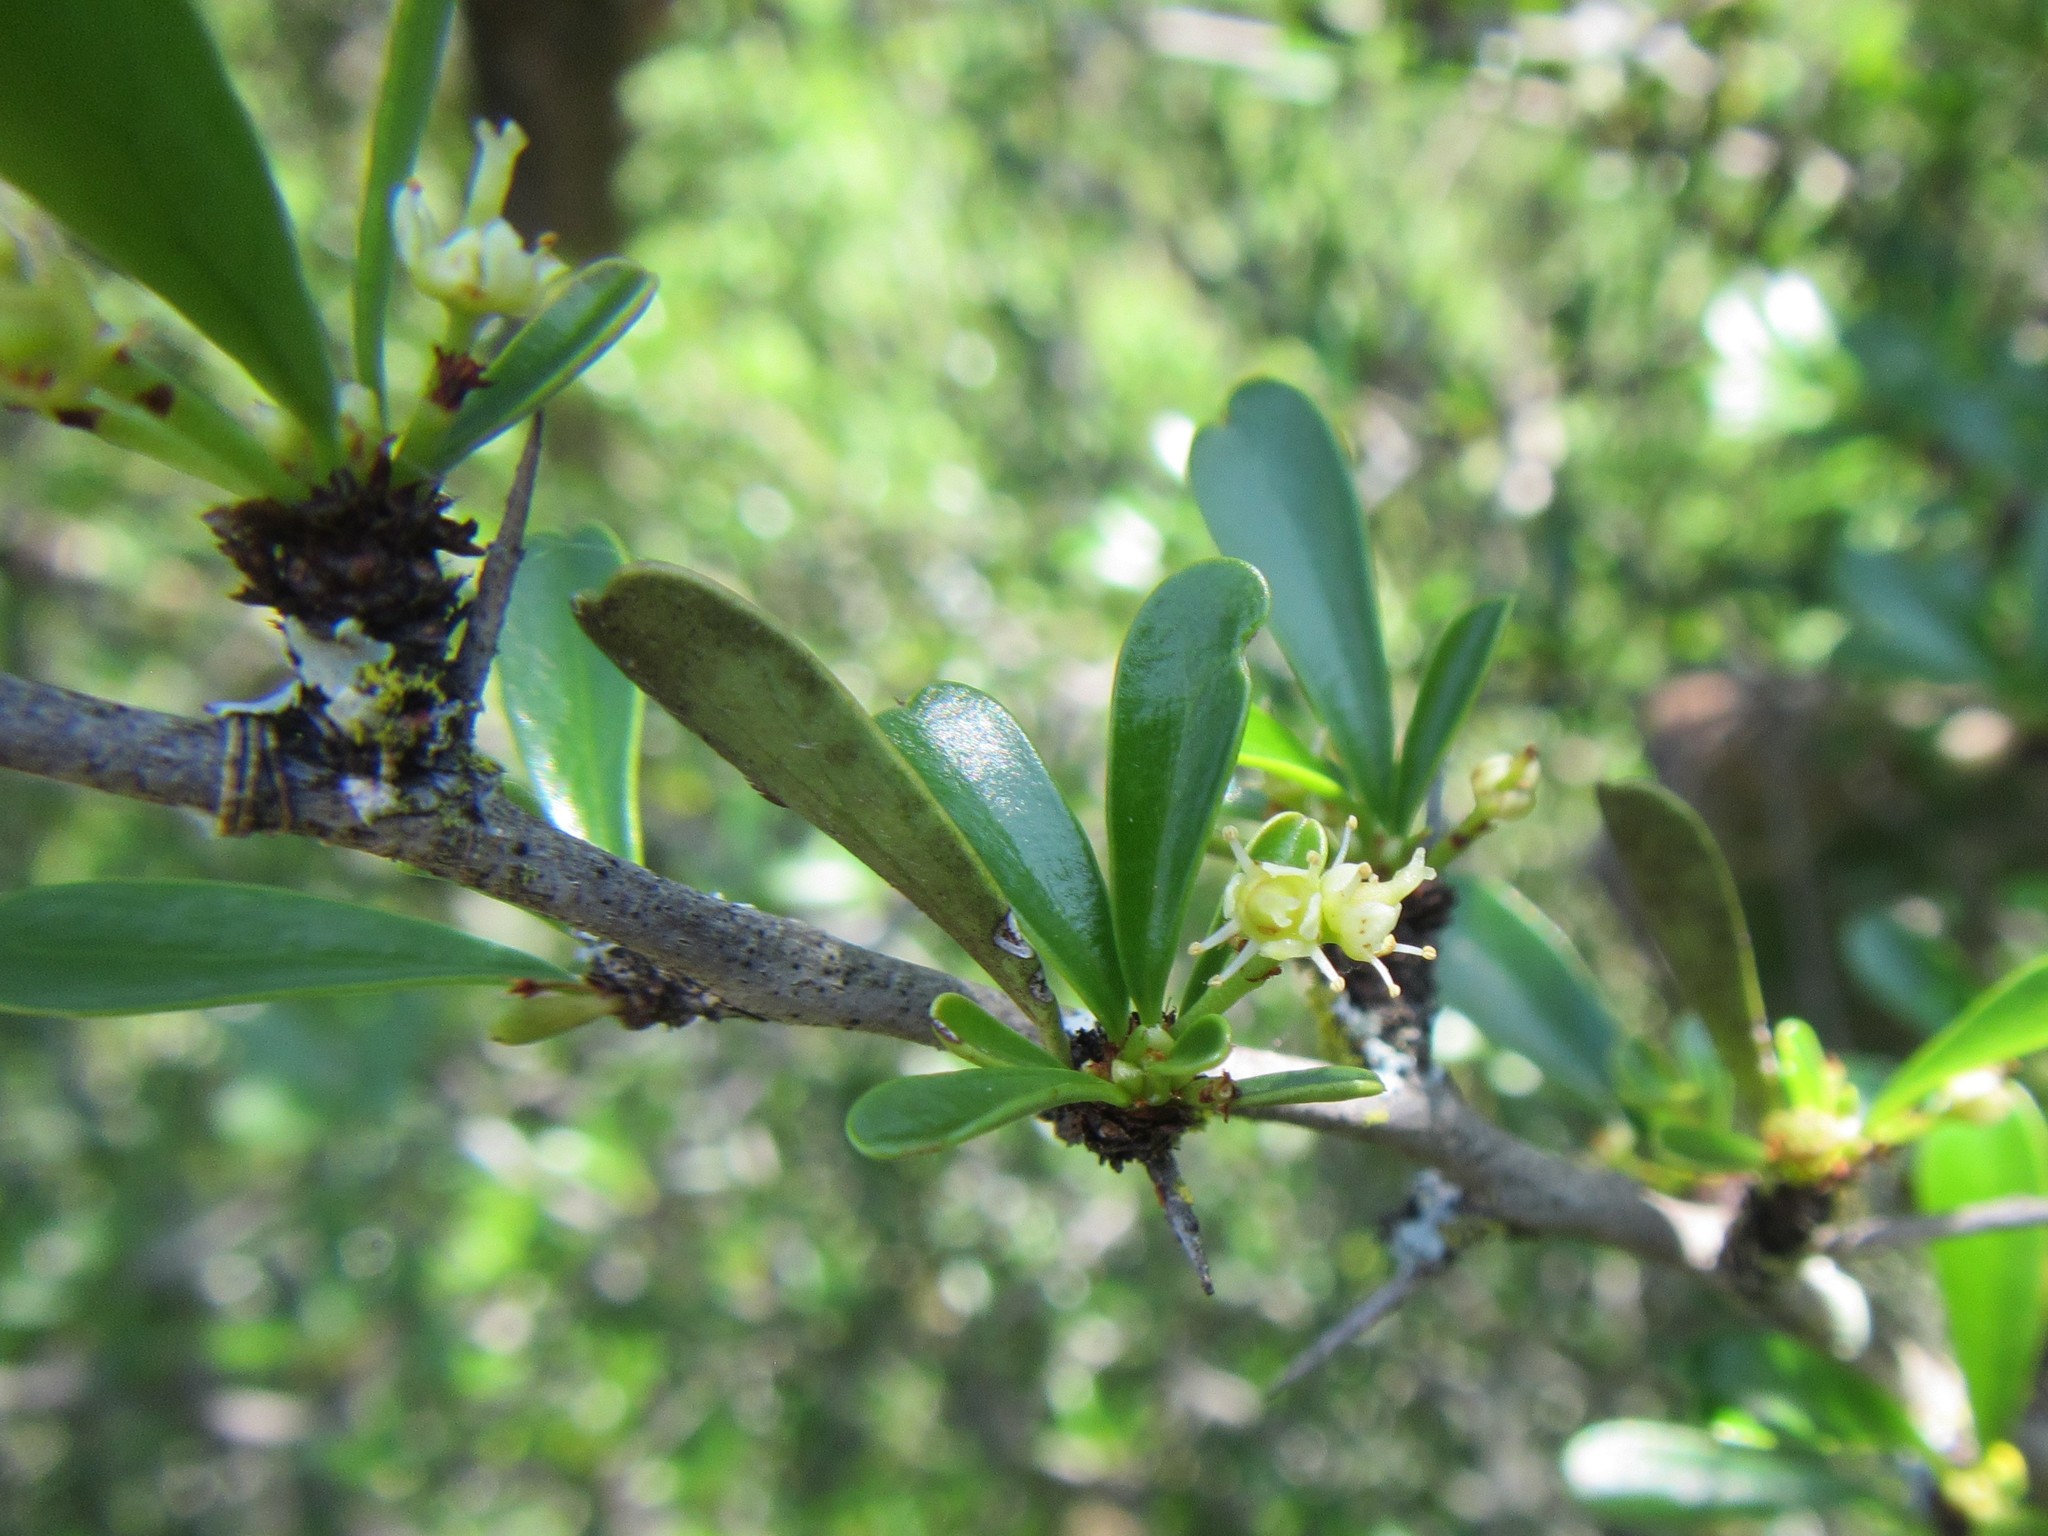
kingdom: Plantae
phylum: Tracheophyta
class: Magnoliopsida
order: Celastrales
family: Celastraceae
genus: Gymnosporia
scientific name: Gymnosporia capitata
